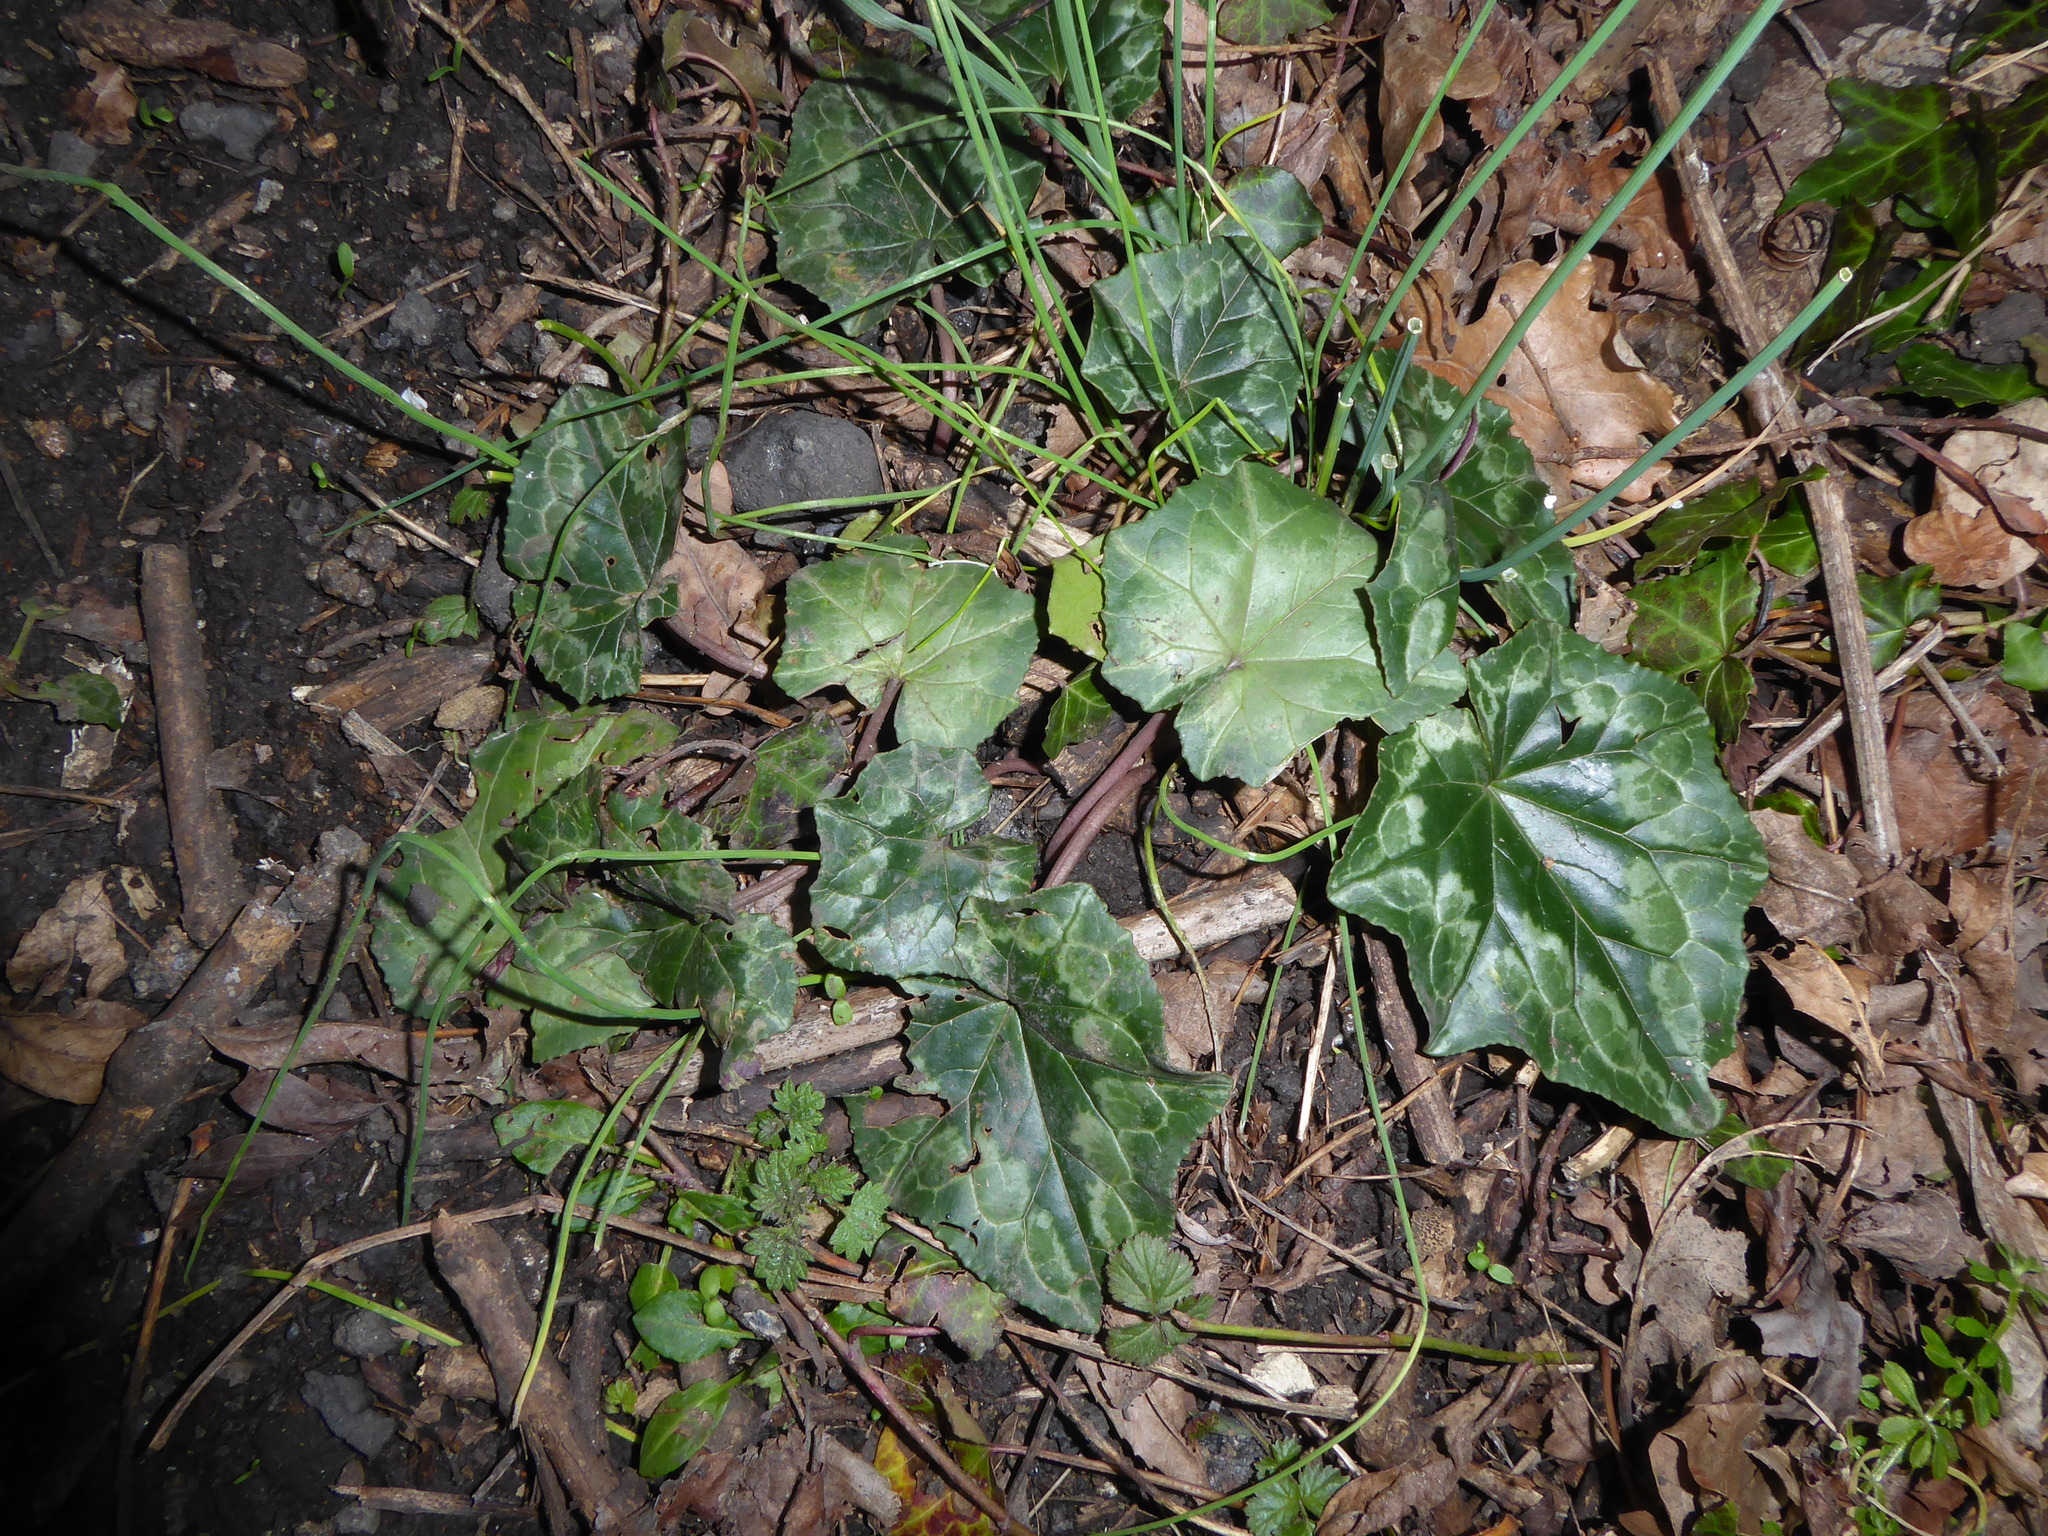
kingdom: Plantae
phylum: Tracheophyta
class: Magnoliopsida
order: Ericales
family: Primulaceae
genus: Cyclamen
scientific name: Cyclamen hederifolium
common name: Sowbread
